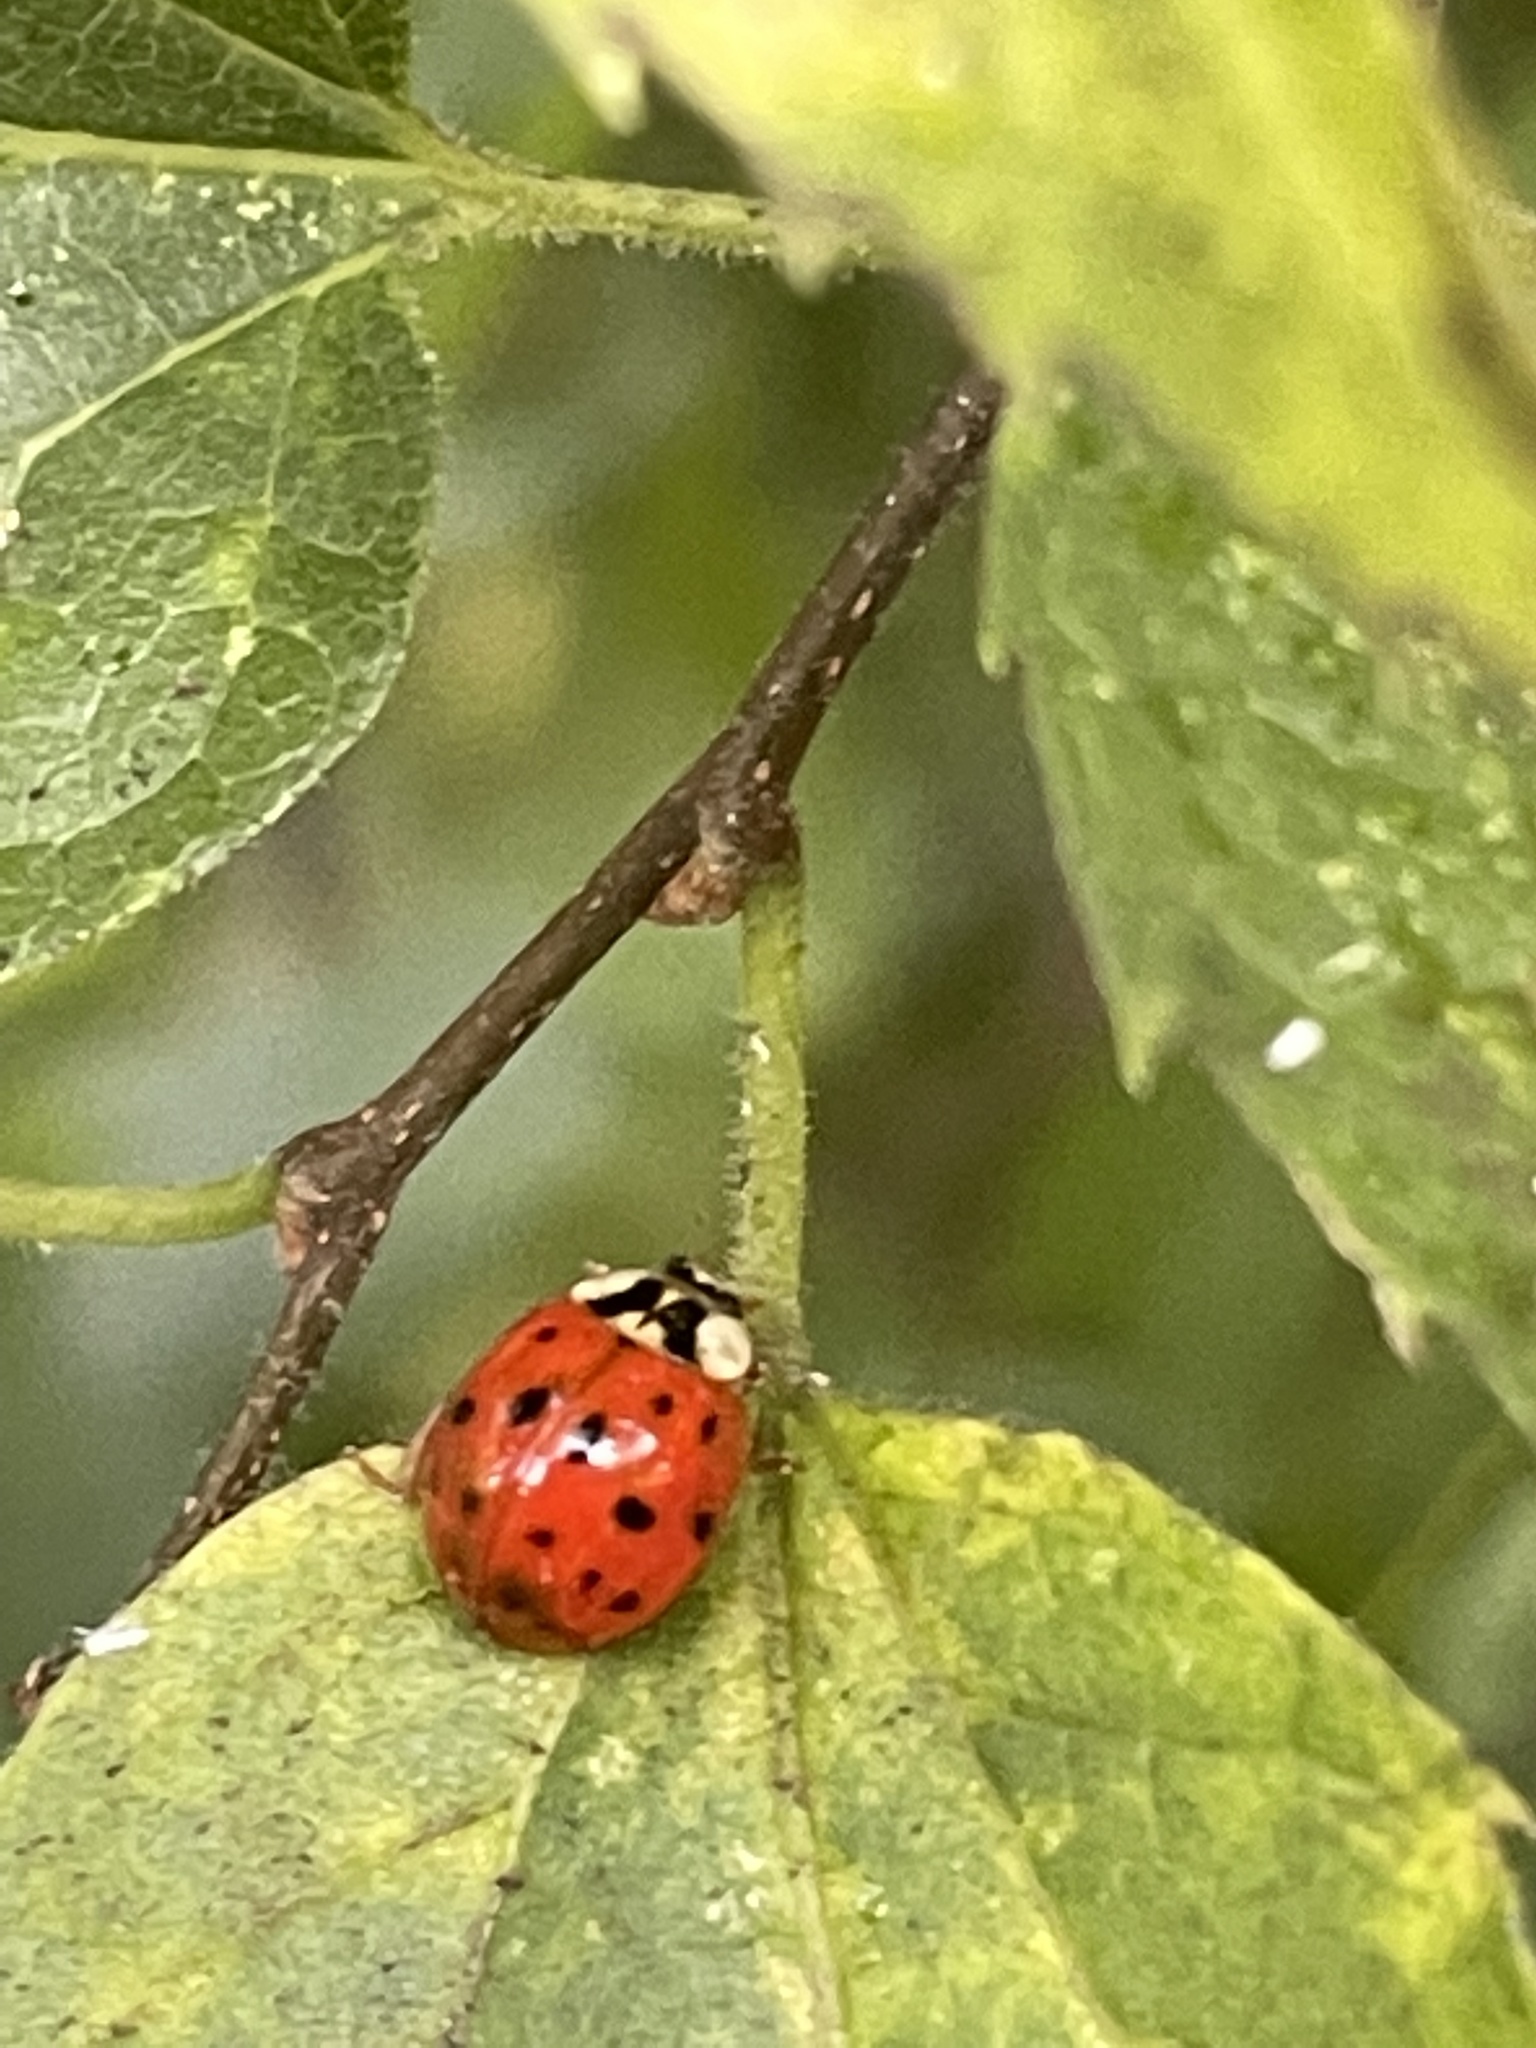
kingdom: Animalia
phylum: Arthropoda
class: Insecta
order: Coleoptera
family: Coccinellidae
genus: Harmonia
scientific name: Harmonia axyridis
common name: Harlequin ladybird
